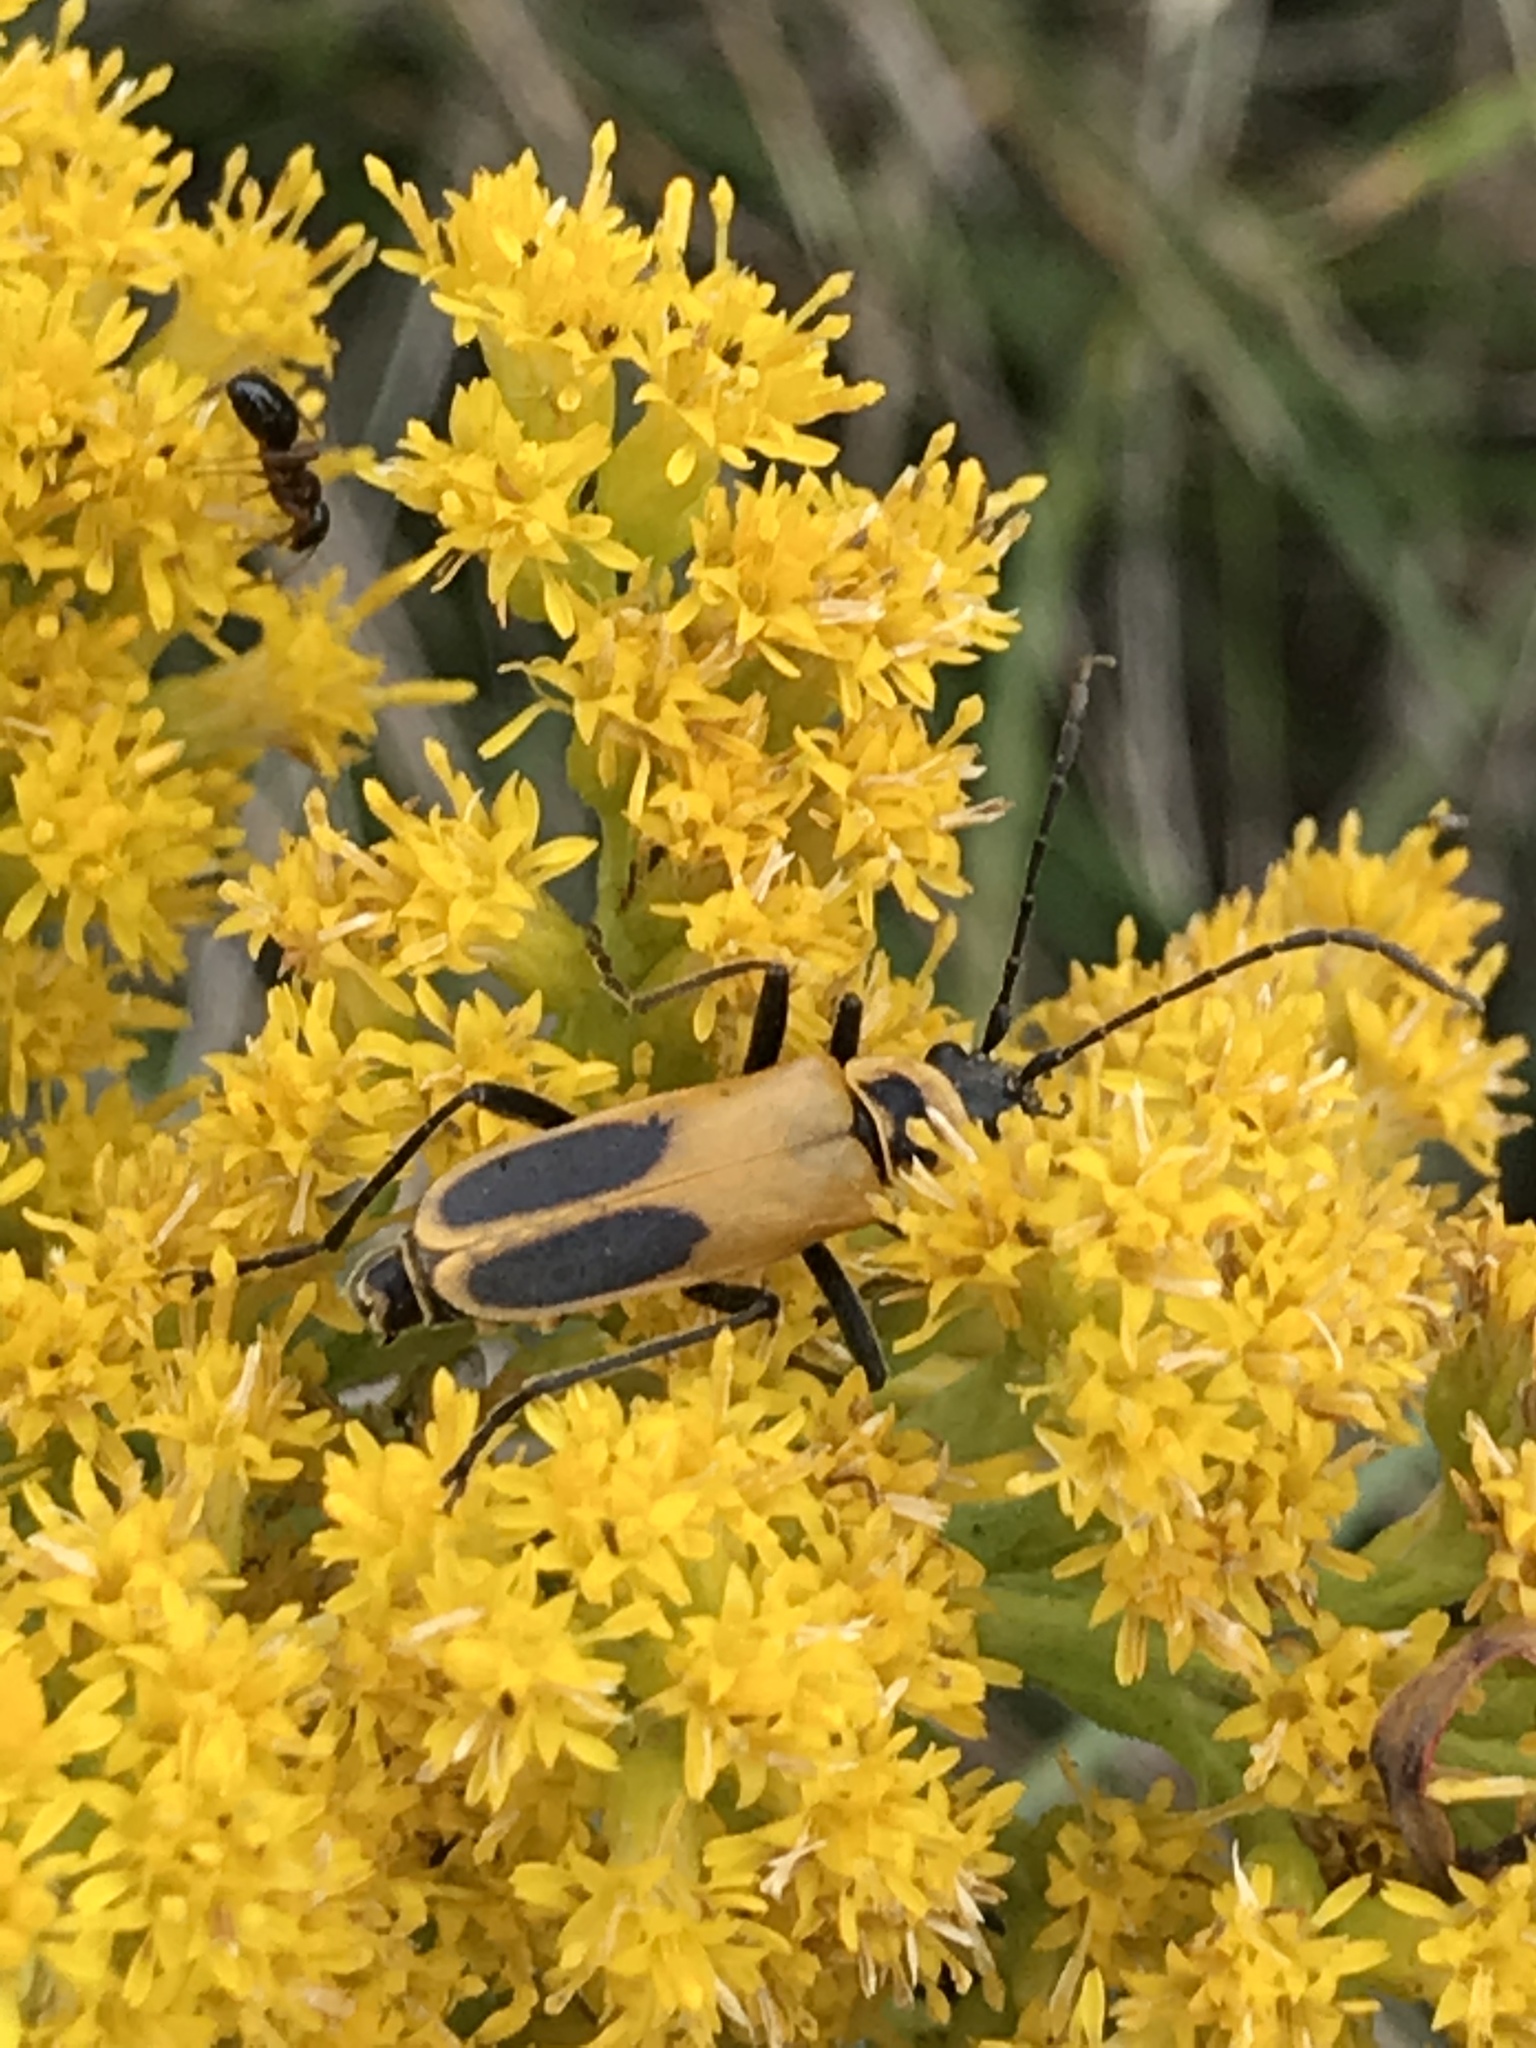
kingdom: Animalia
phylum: Arthropoda
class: Insecta
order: Coleoptera
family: Cantharidae
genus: Chauliognathus
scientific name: Chauliognathus pensylvanicus
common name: Goldenrod soldier beetle
